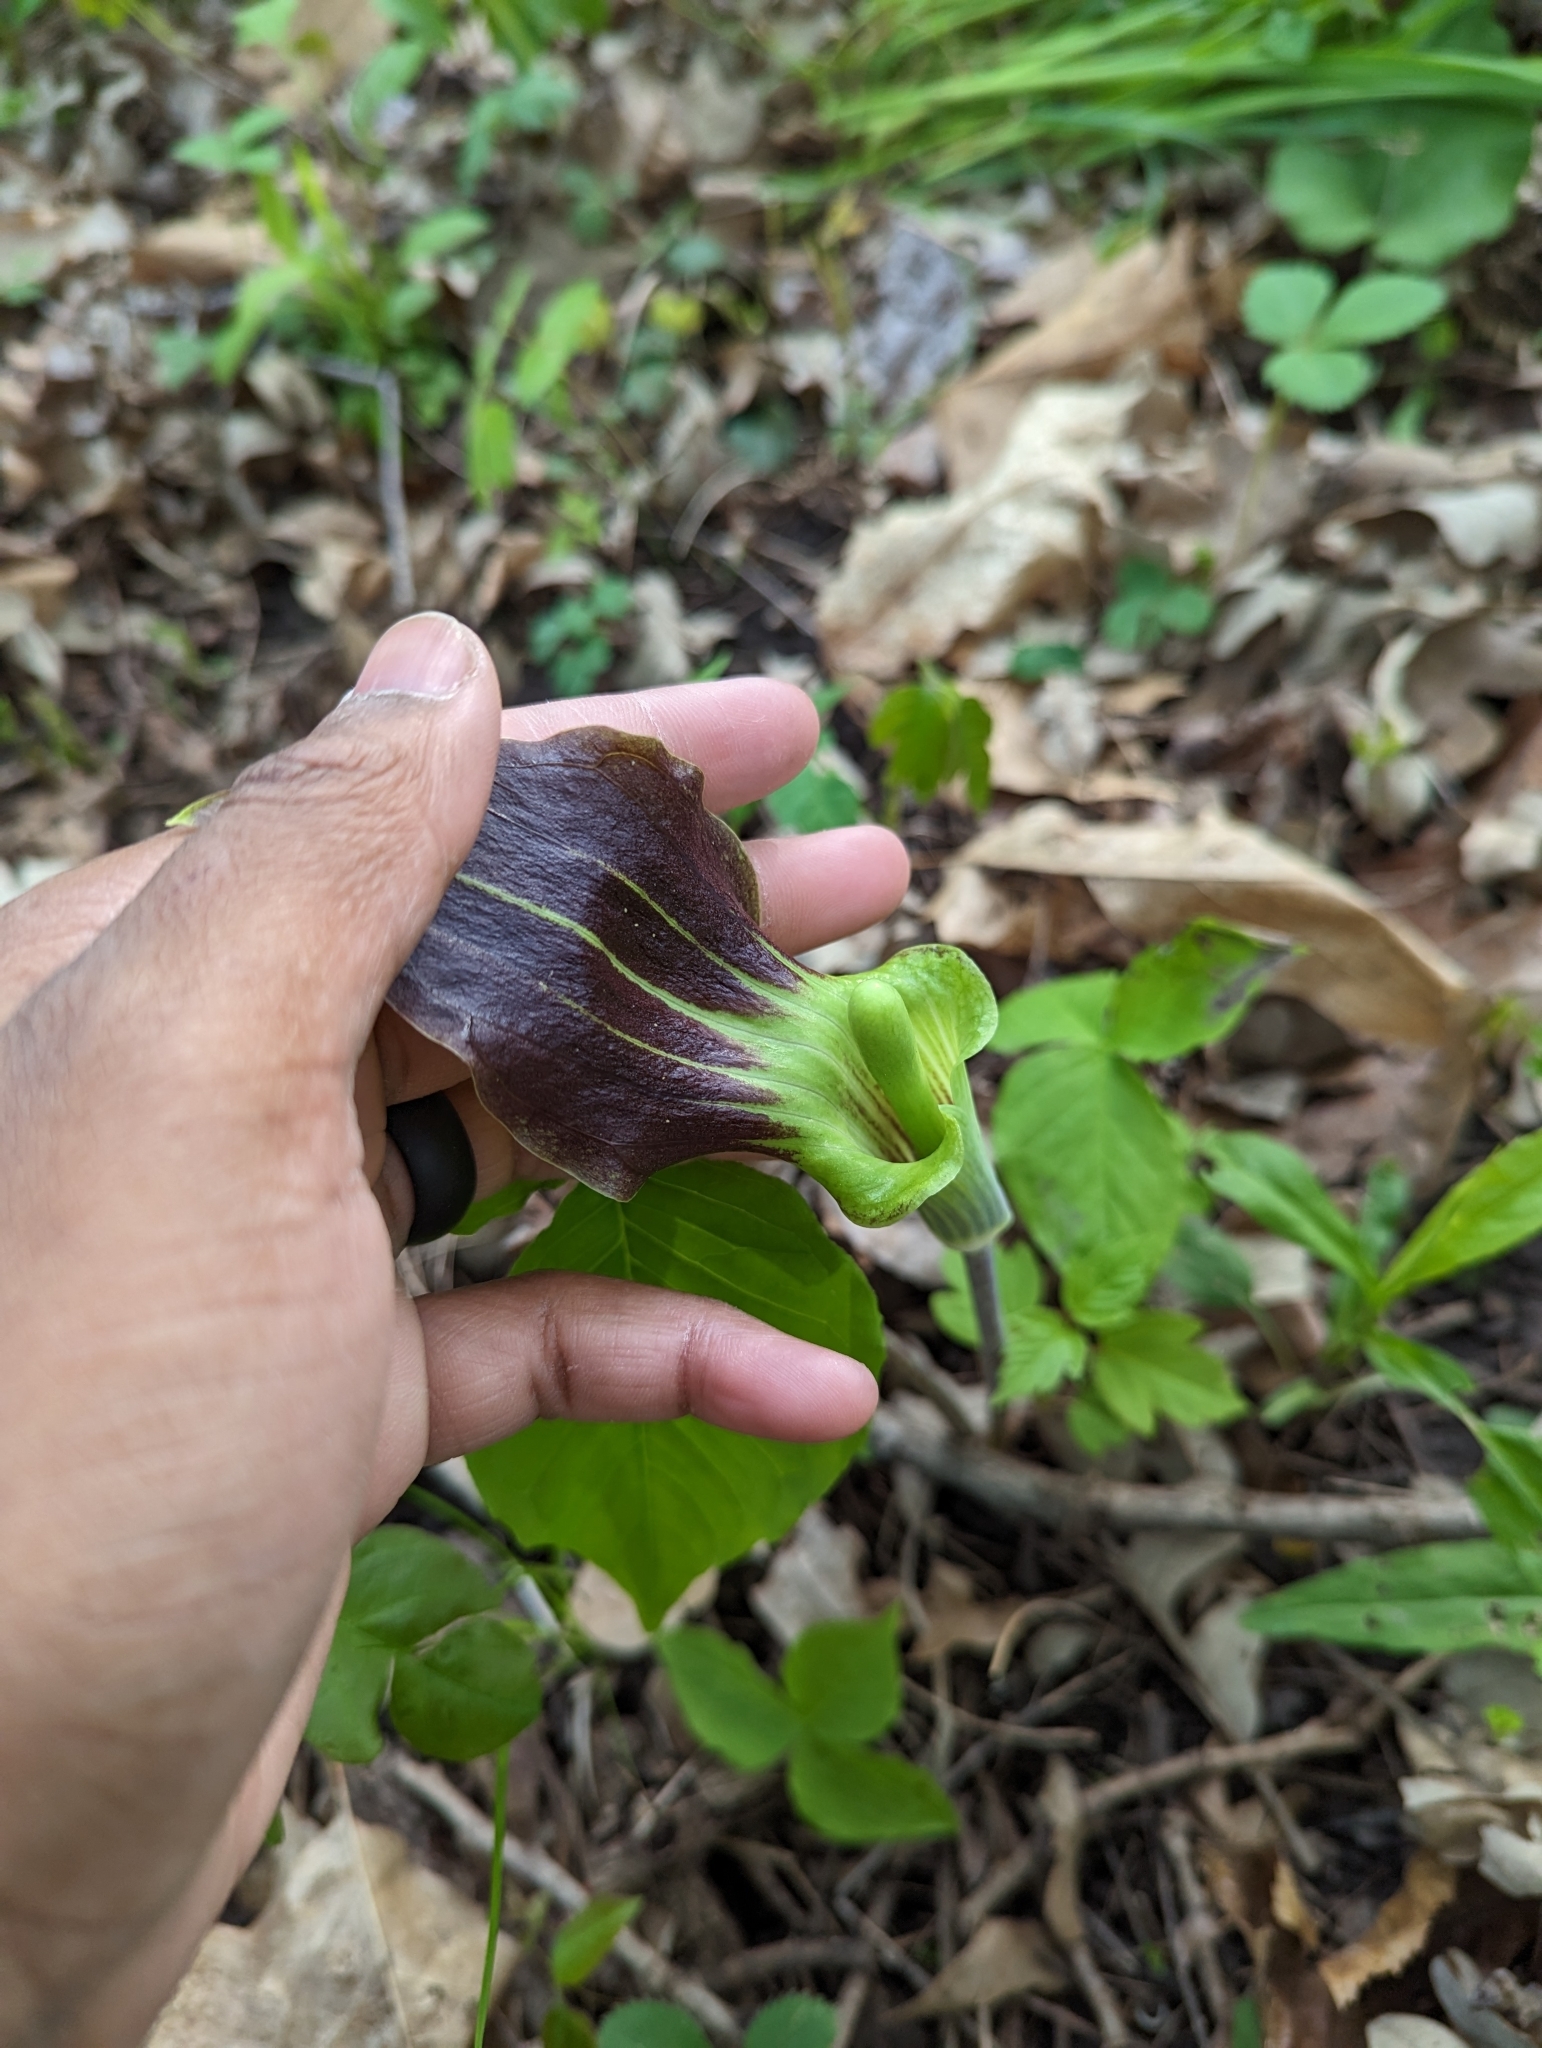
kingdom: Plantae
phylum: Tracheophyta
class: Liliopsida
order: Alismatales
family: Araceae
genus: Arisaema
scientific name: Arisaema triphyllum
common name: Jack-in-the-pulpit
